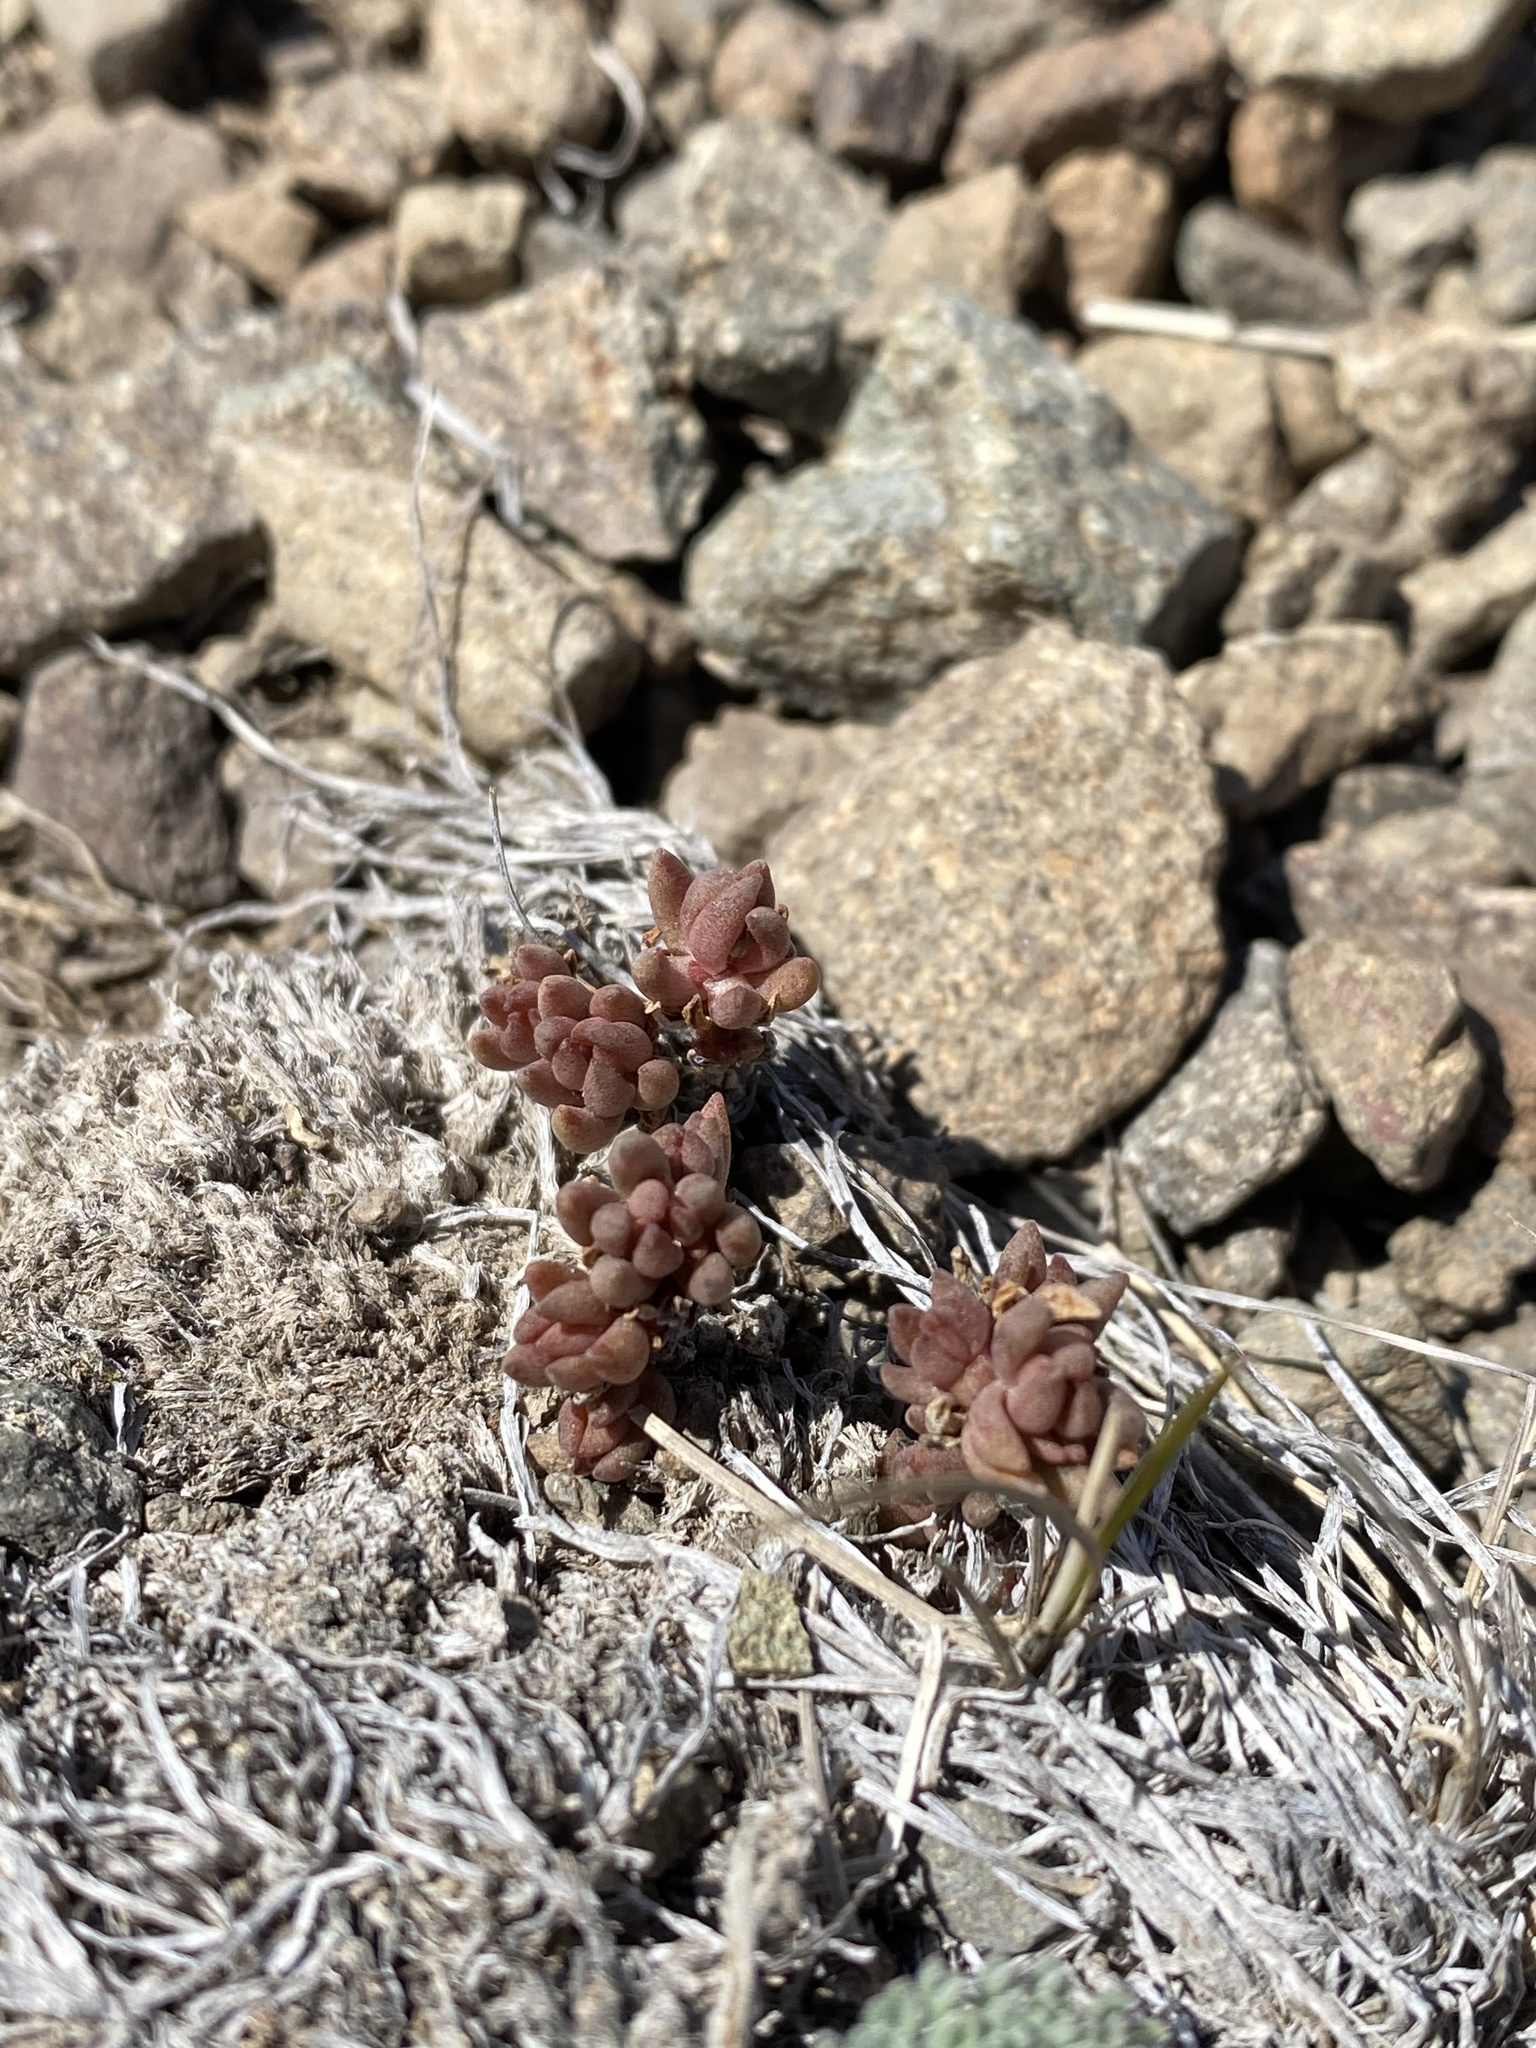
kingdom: Plantae
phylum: Tracheophyta
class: Magnoliopsida
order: Saxifragales
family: Crassulaceae
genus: Sedum
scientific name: Sedum lanceolatum
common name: Common stonecrop
